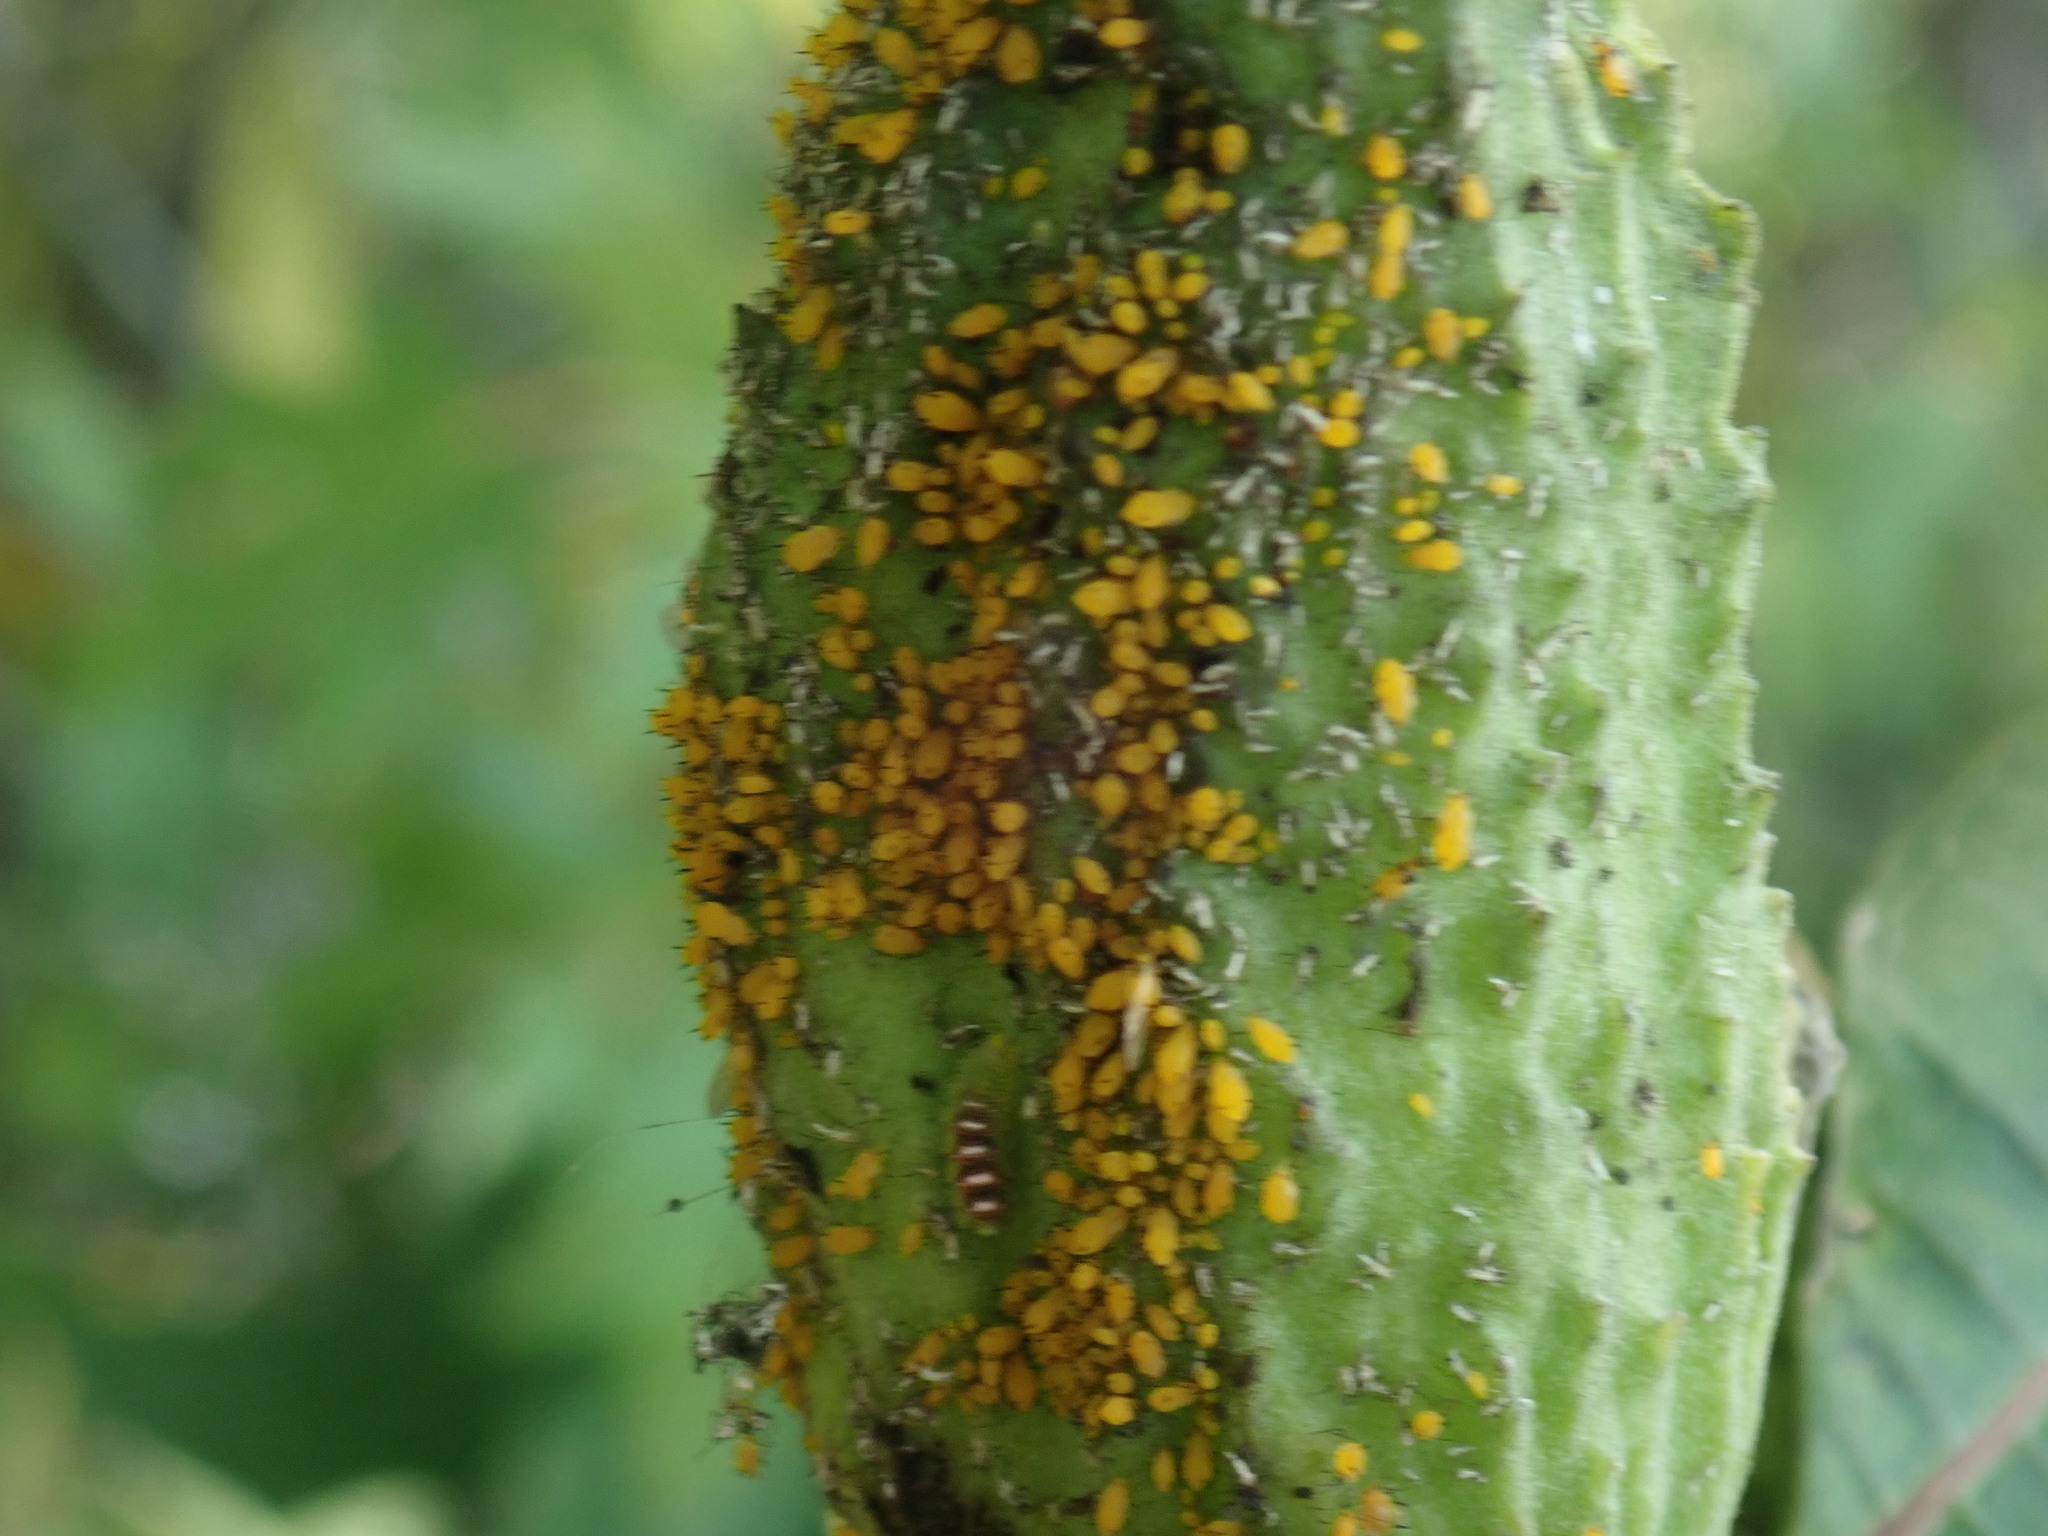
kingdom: Animalia
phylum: Arthropoda
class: Insecta
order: Hemiptera
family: Aphididae
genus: Aphis
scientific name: Aphis nerii
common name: Oleander aphid
